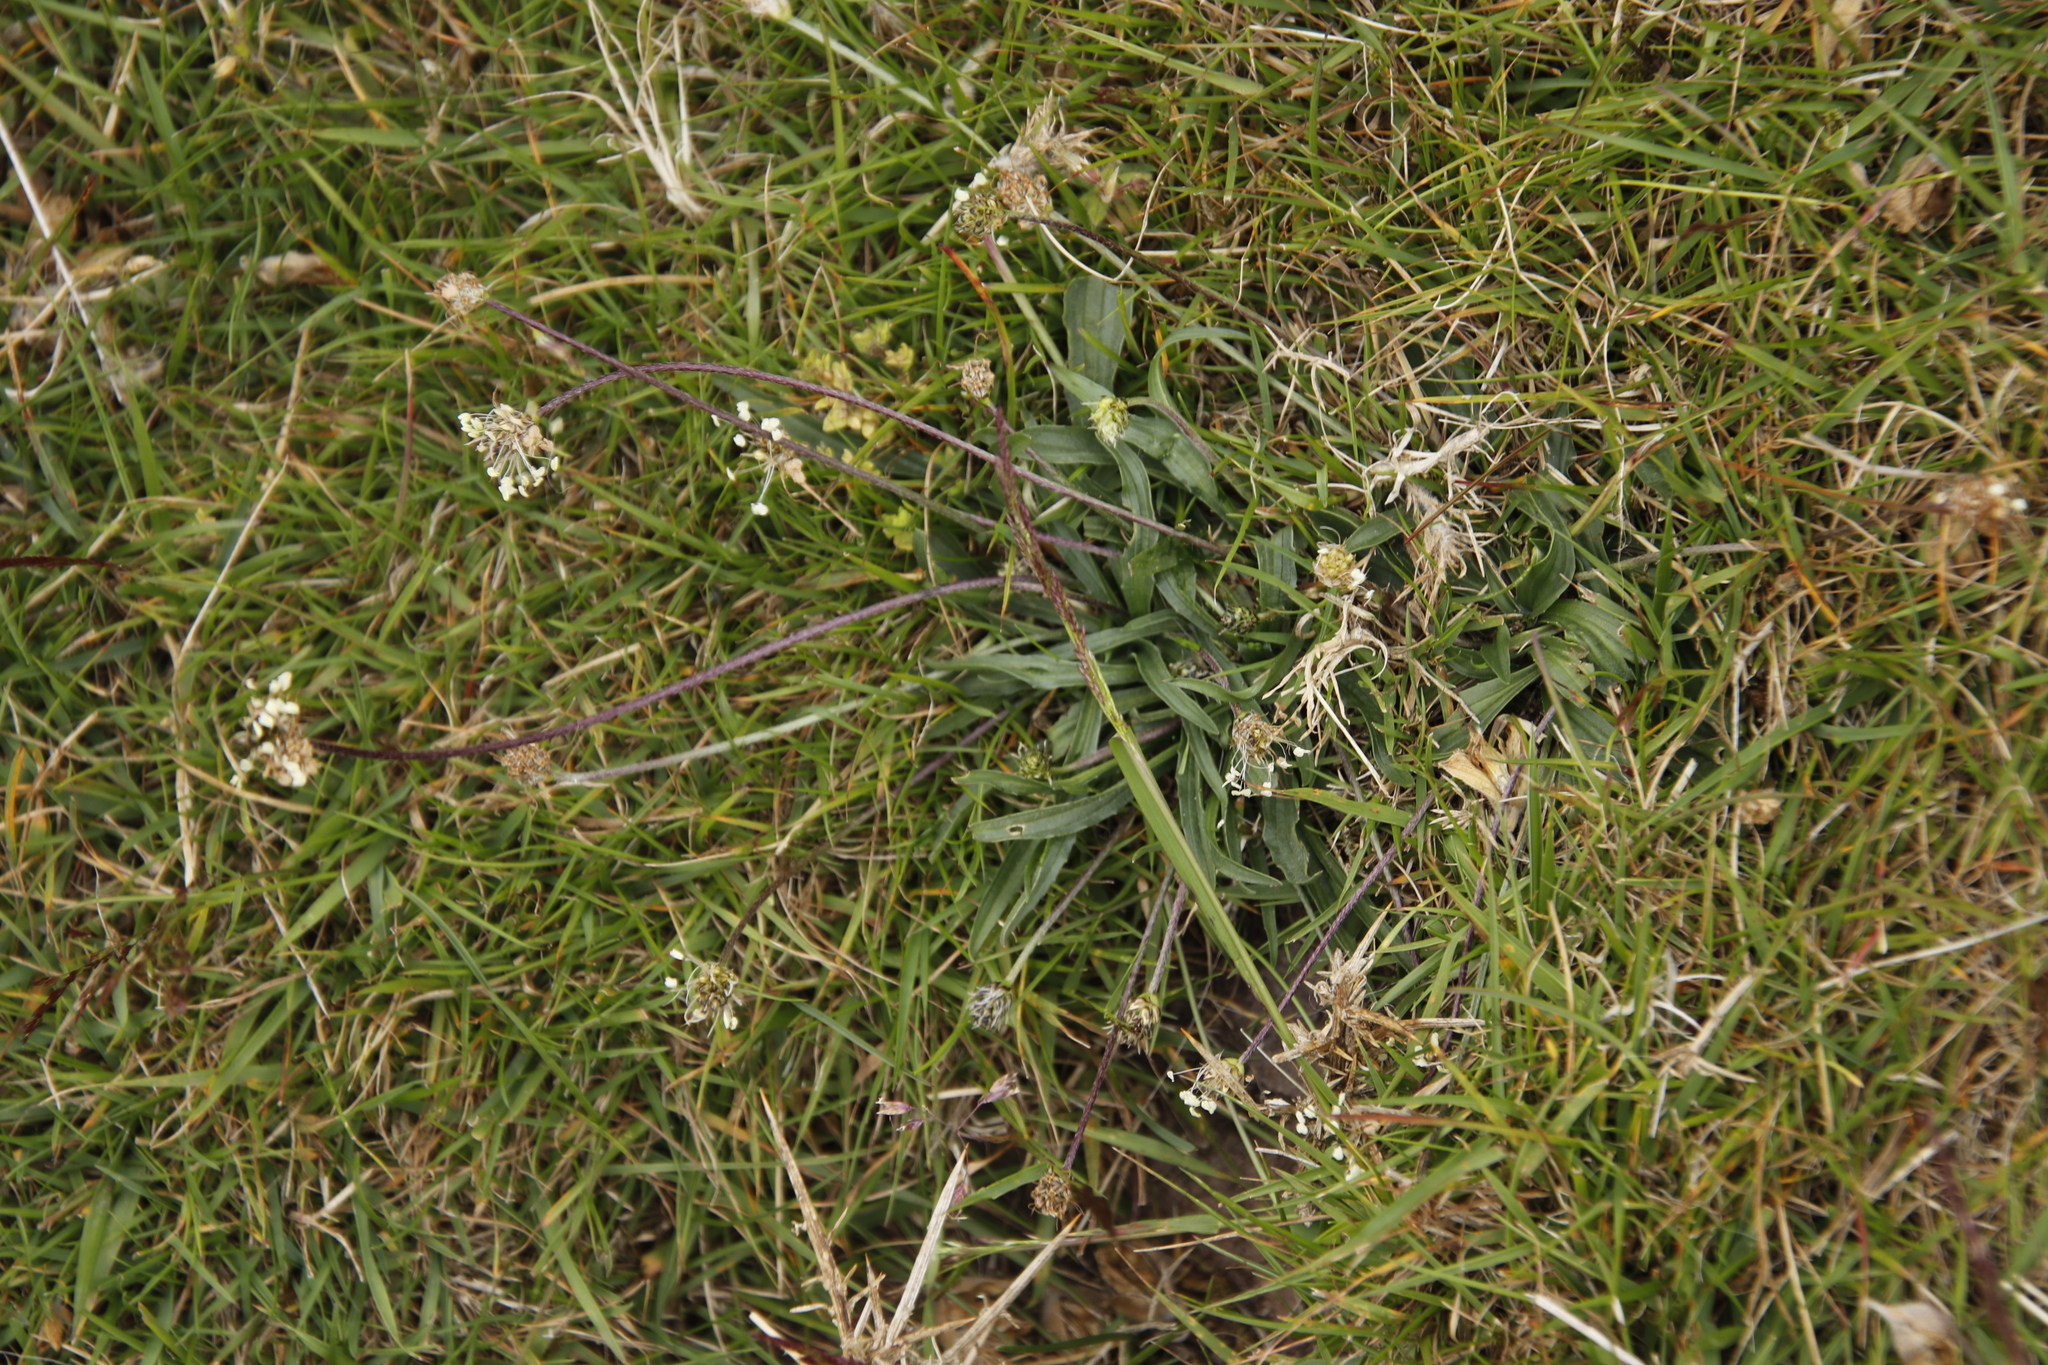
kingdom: Plantae
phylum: Tracheophyta
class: Magnoliopsida
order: Lamiales
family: Plantaginaceae
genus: Plantago
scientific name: Plantago lanceolata
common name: Ribwort plantain
